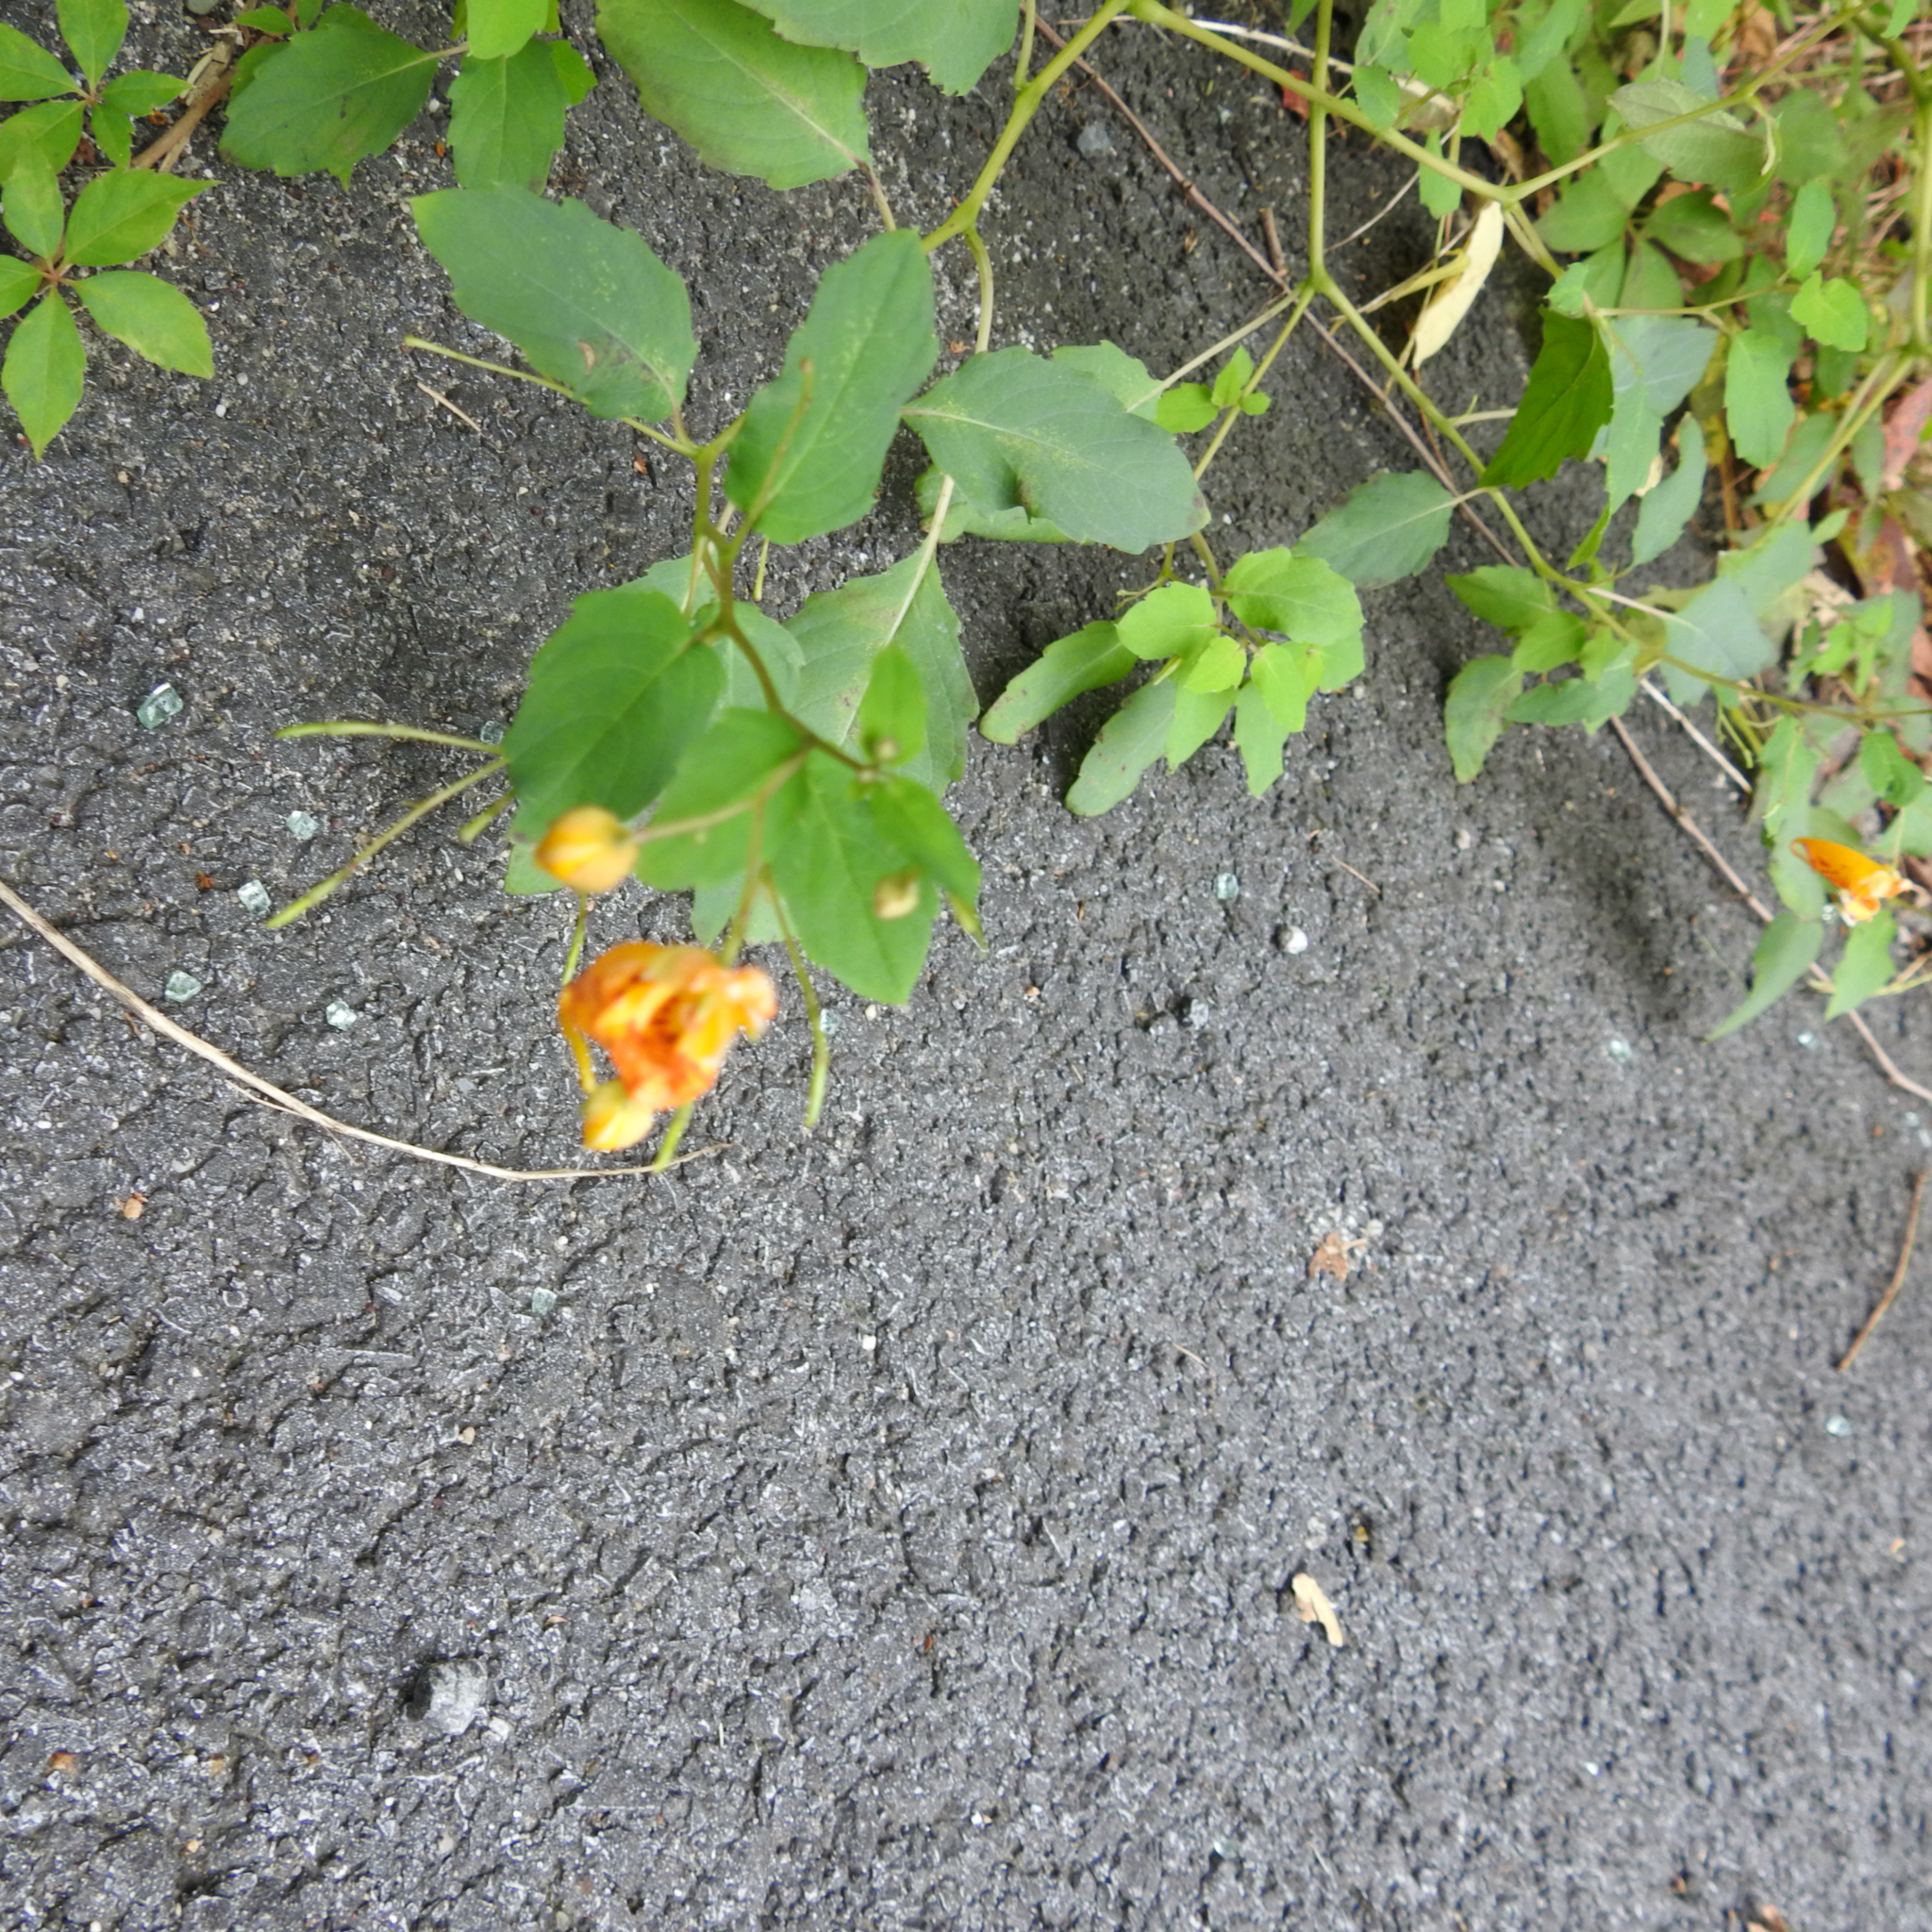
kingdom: Plantae
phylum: Tracheophyta
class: Magnoliopsida
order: Ericales
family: Balsaminaceae
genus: Impatiens
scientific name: Impatiens capensis
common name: Orange balsam
